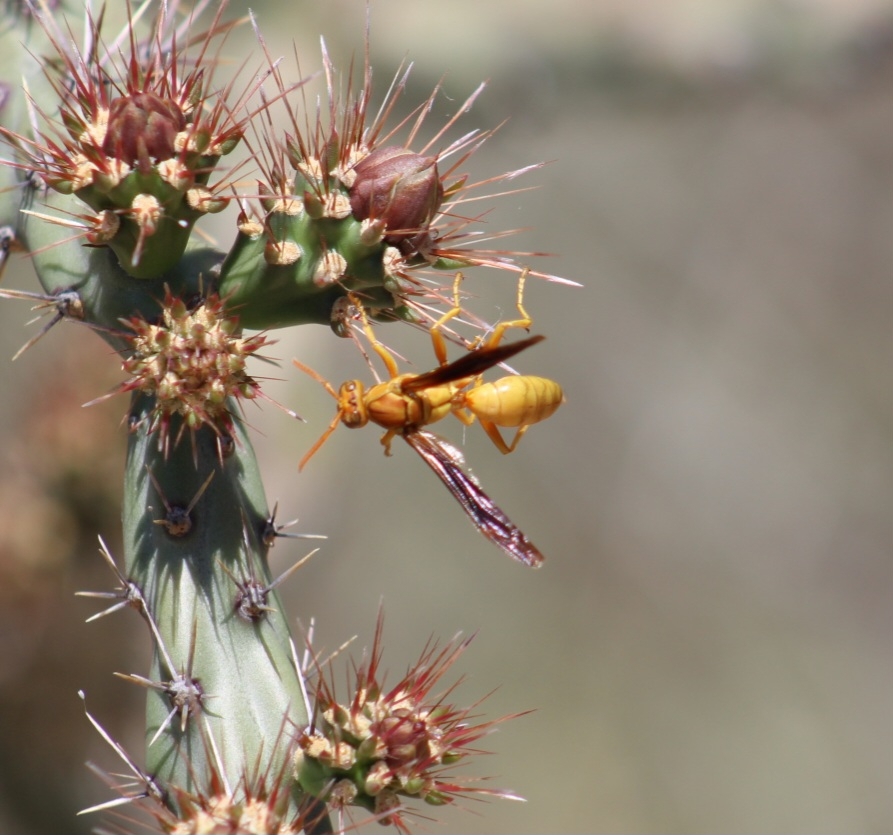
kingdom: Animalia
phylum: Arthropoda
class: Insecta
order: Hymenoptera
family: Eumenidae
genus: Polistes
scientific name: Polistes flavus
